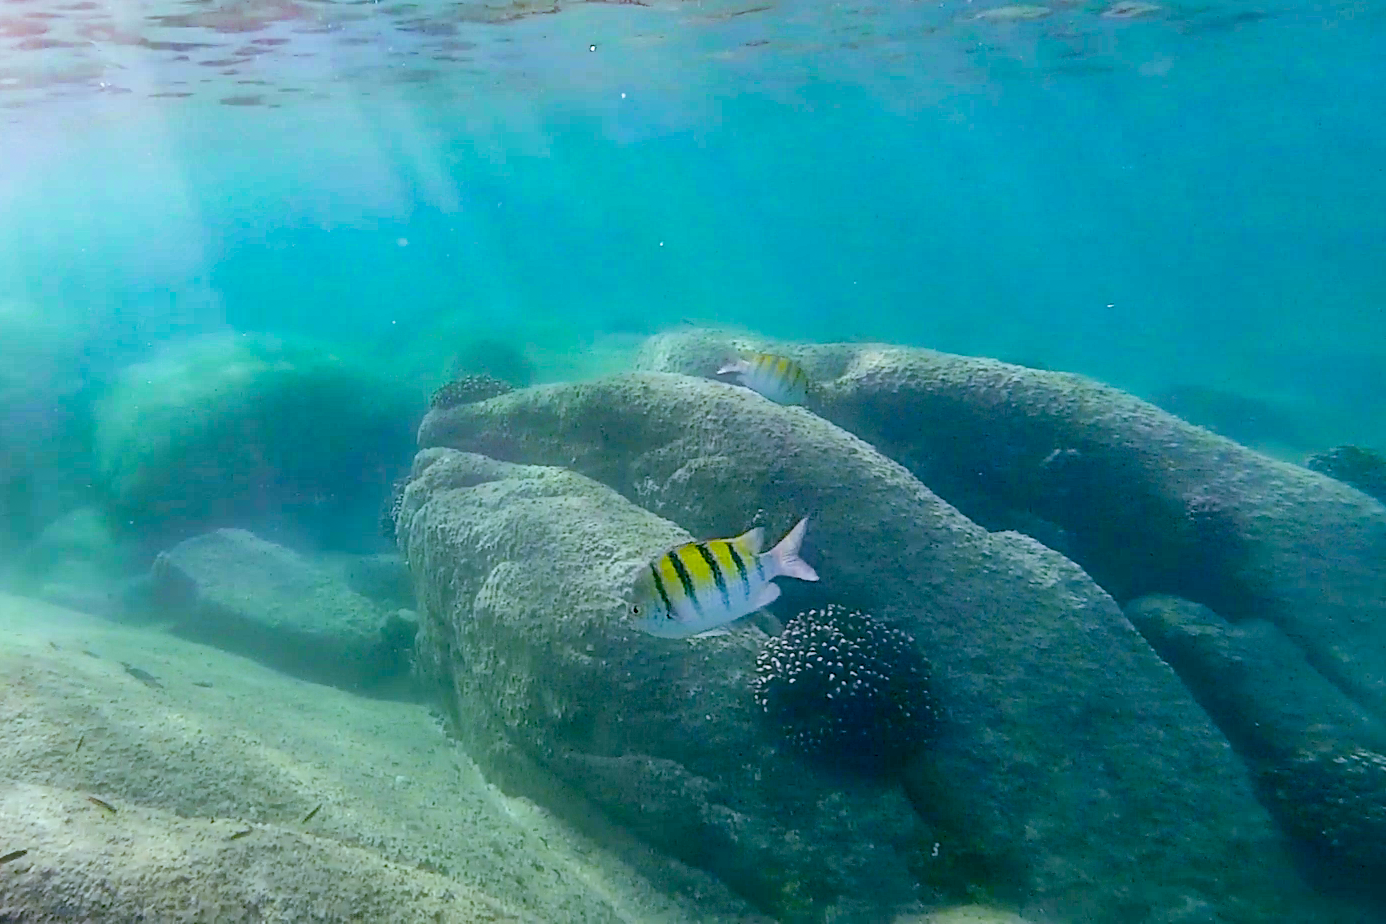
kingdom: Animalia
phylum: Chordata
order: Perciformes
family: Pomacentridae
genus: Abudefduf
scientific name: Abudefduf troschelii
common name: Panamic sergeant major
